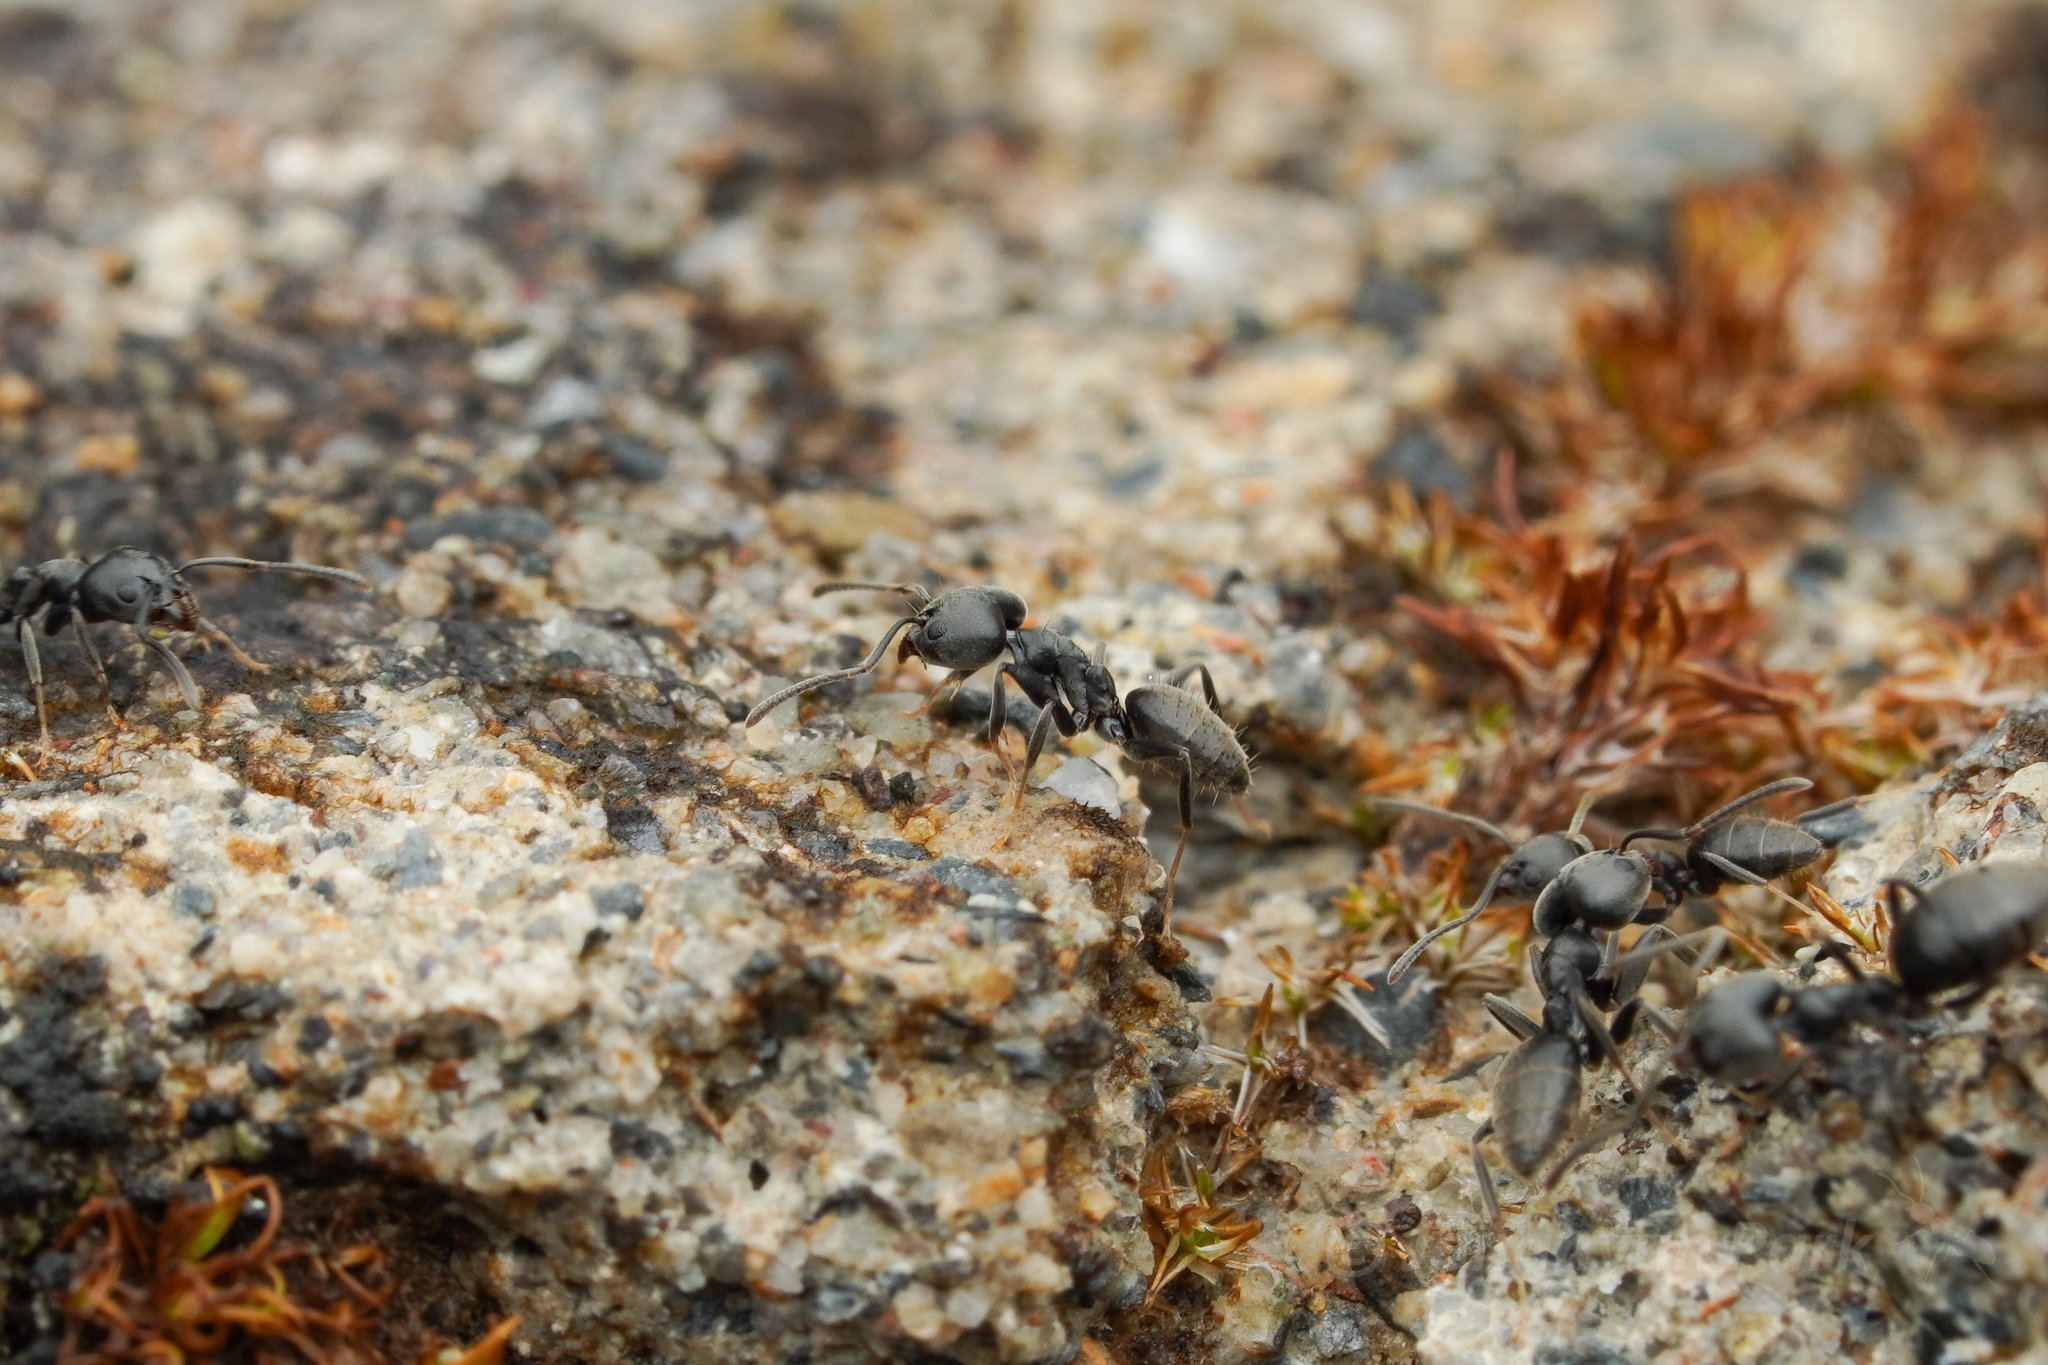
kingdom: Animalia
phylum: Arthropoda
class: Insecta
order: Hymenoptera
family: Formicidae
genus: Technomyrmex
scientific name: Technomyrmex modiglianii
